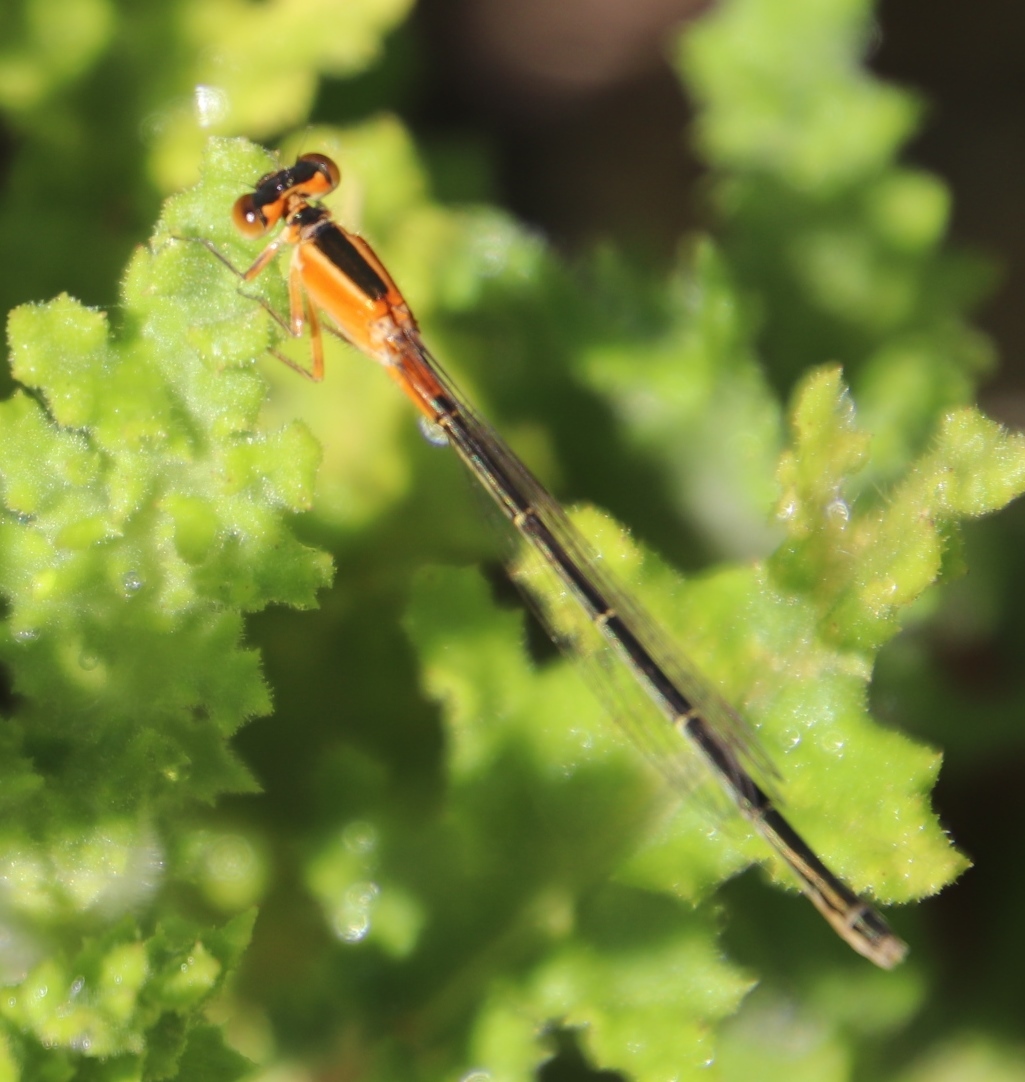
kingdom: Animalia
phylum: Arthropoda
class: Insecta
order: Odonata
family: Coenagrionidae
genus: Ischnura
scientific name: Ischnura senegalensis
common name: Tropical bluetail
